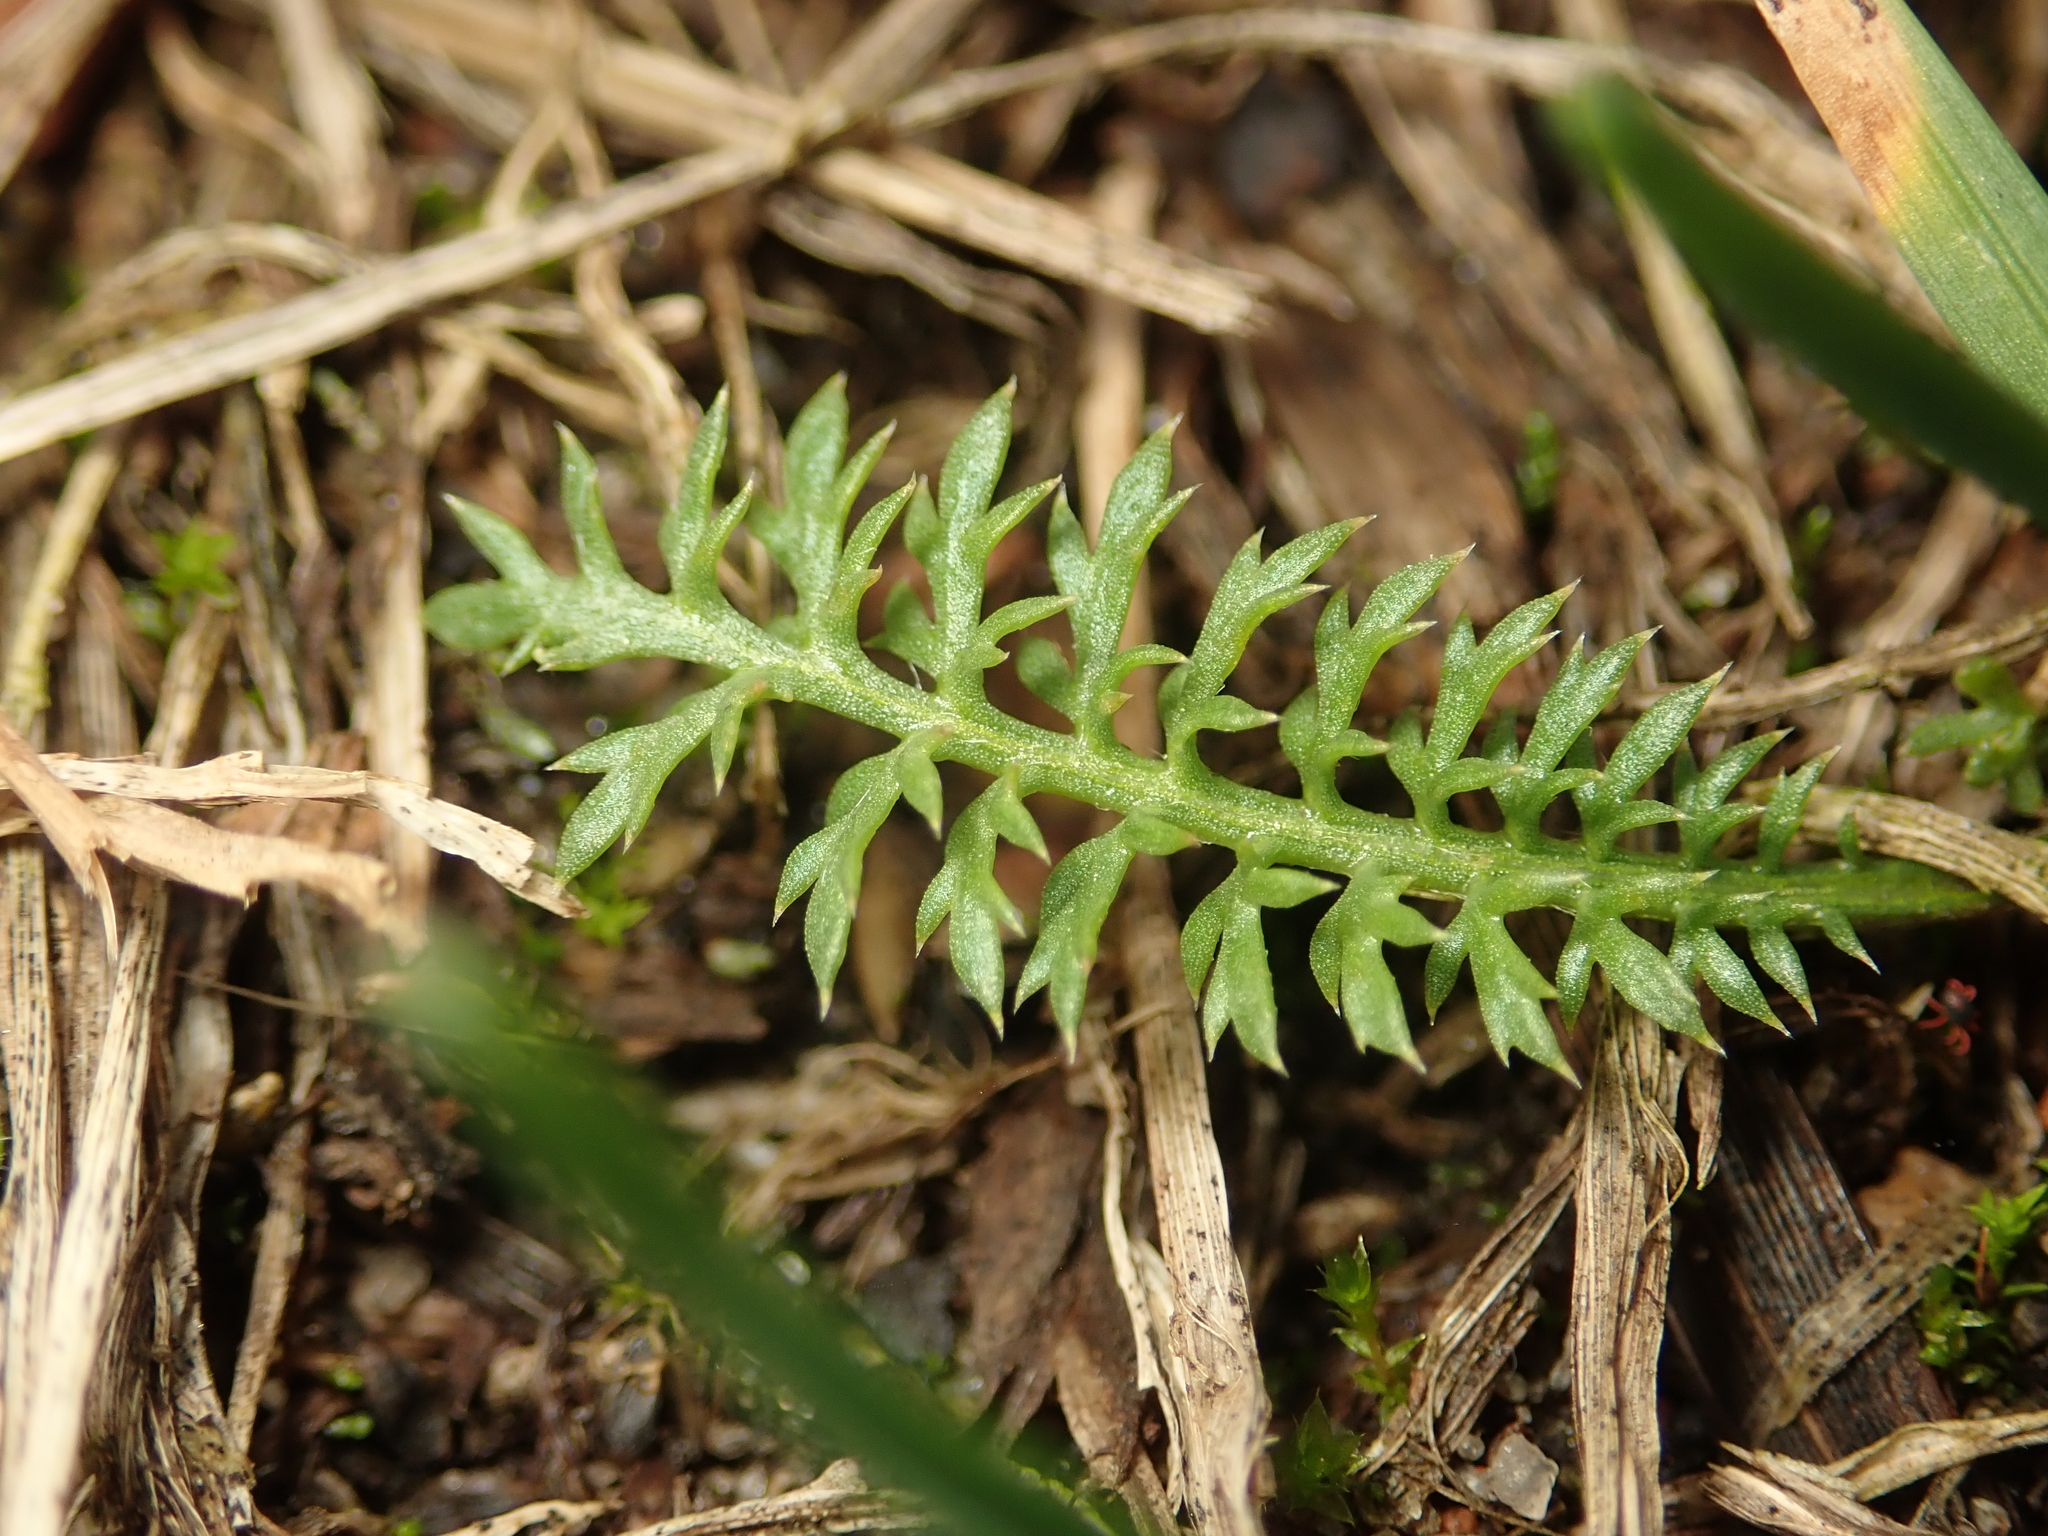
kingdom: Plantae
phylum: Tracheophyta
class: Magnoliopsida
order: Asterales
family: Asteraceae
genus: Achillea
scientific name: Achillea millefolium
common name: Yarrow
